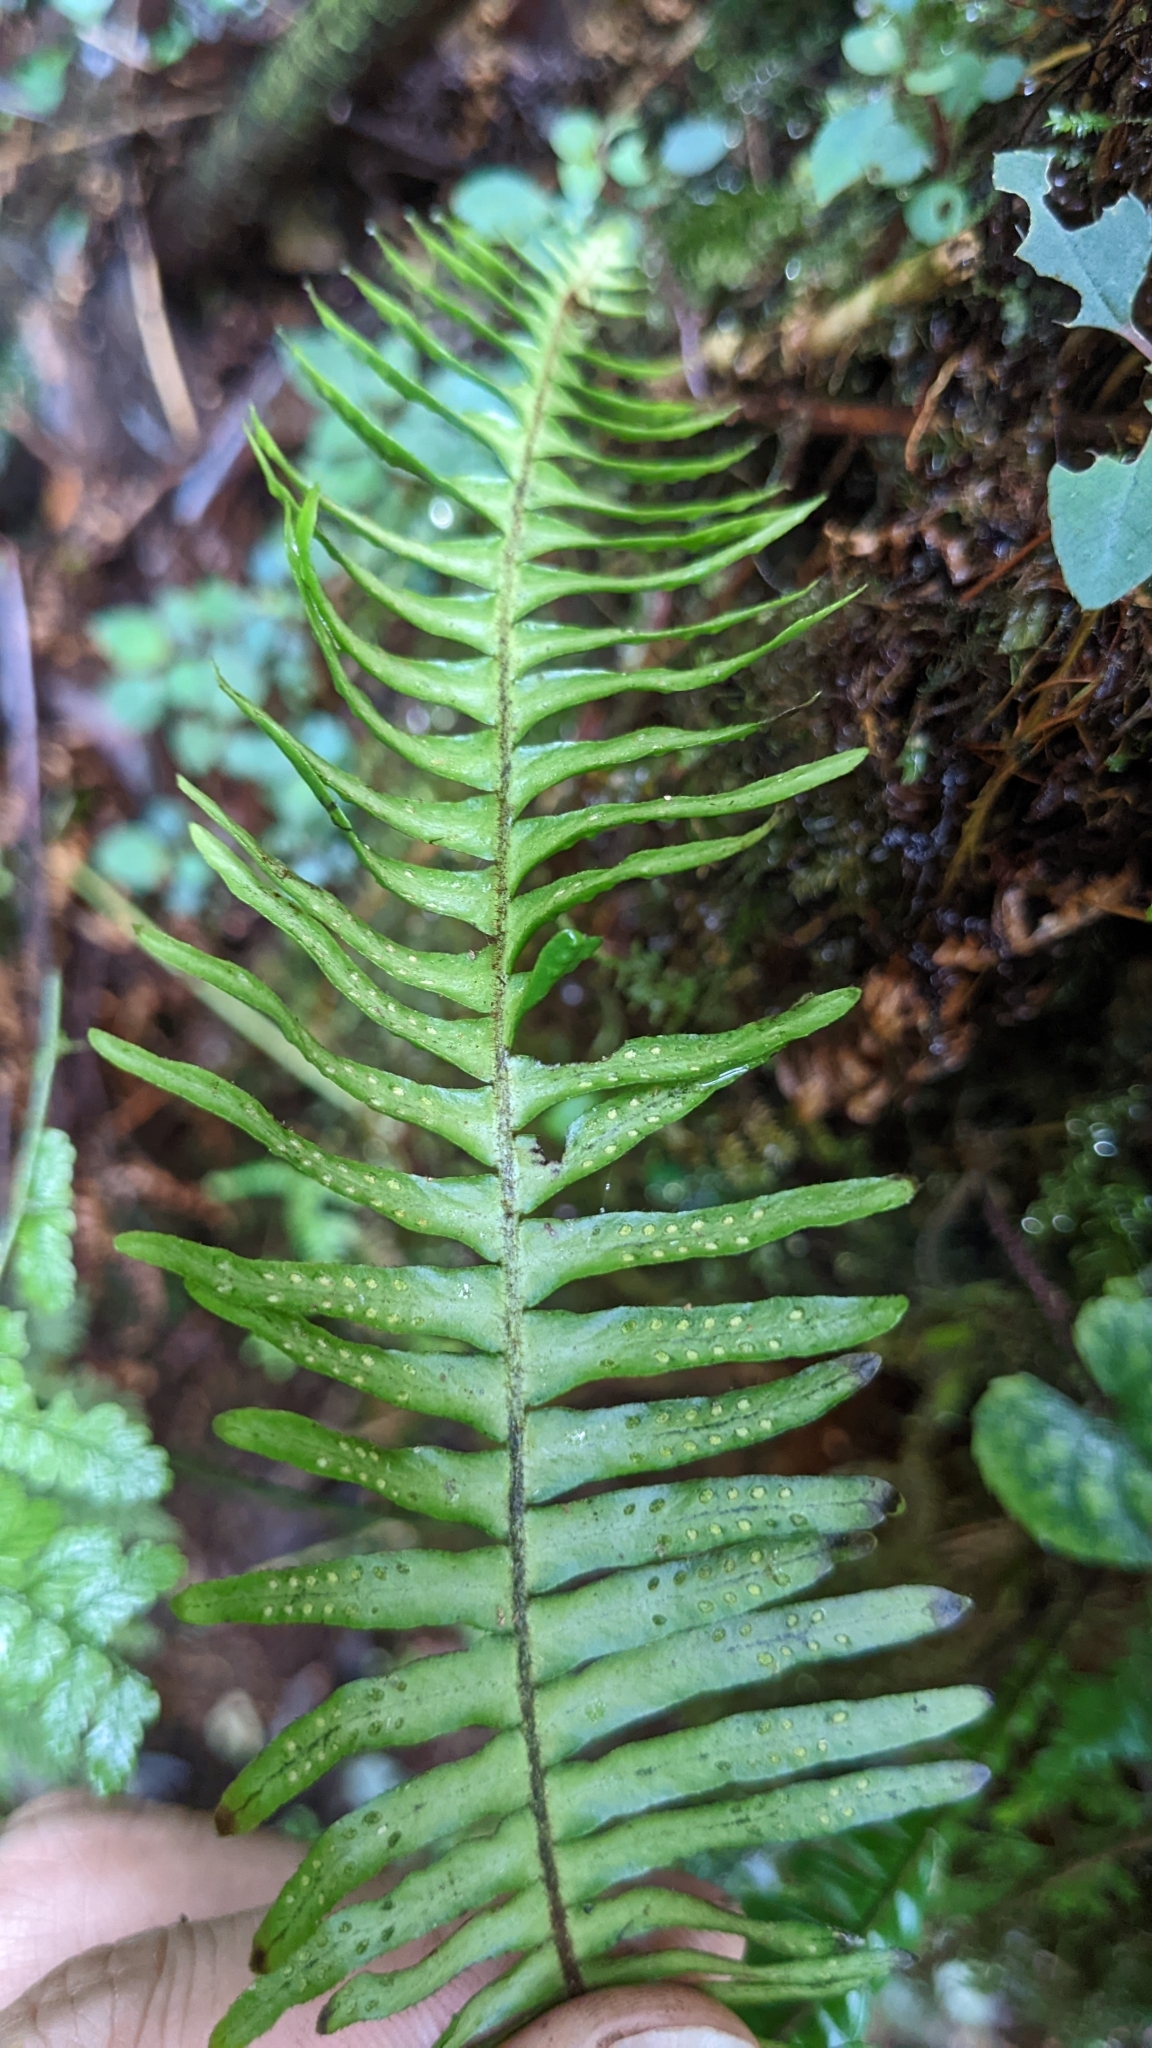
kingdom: Plantae
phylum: Tracheophyta
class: Polypodiopsida
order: Polypodiales
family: Polypodiaceae
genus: Prosaptia
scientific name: Prosaptia celebica
